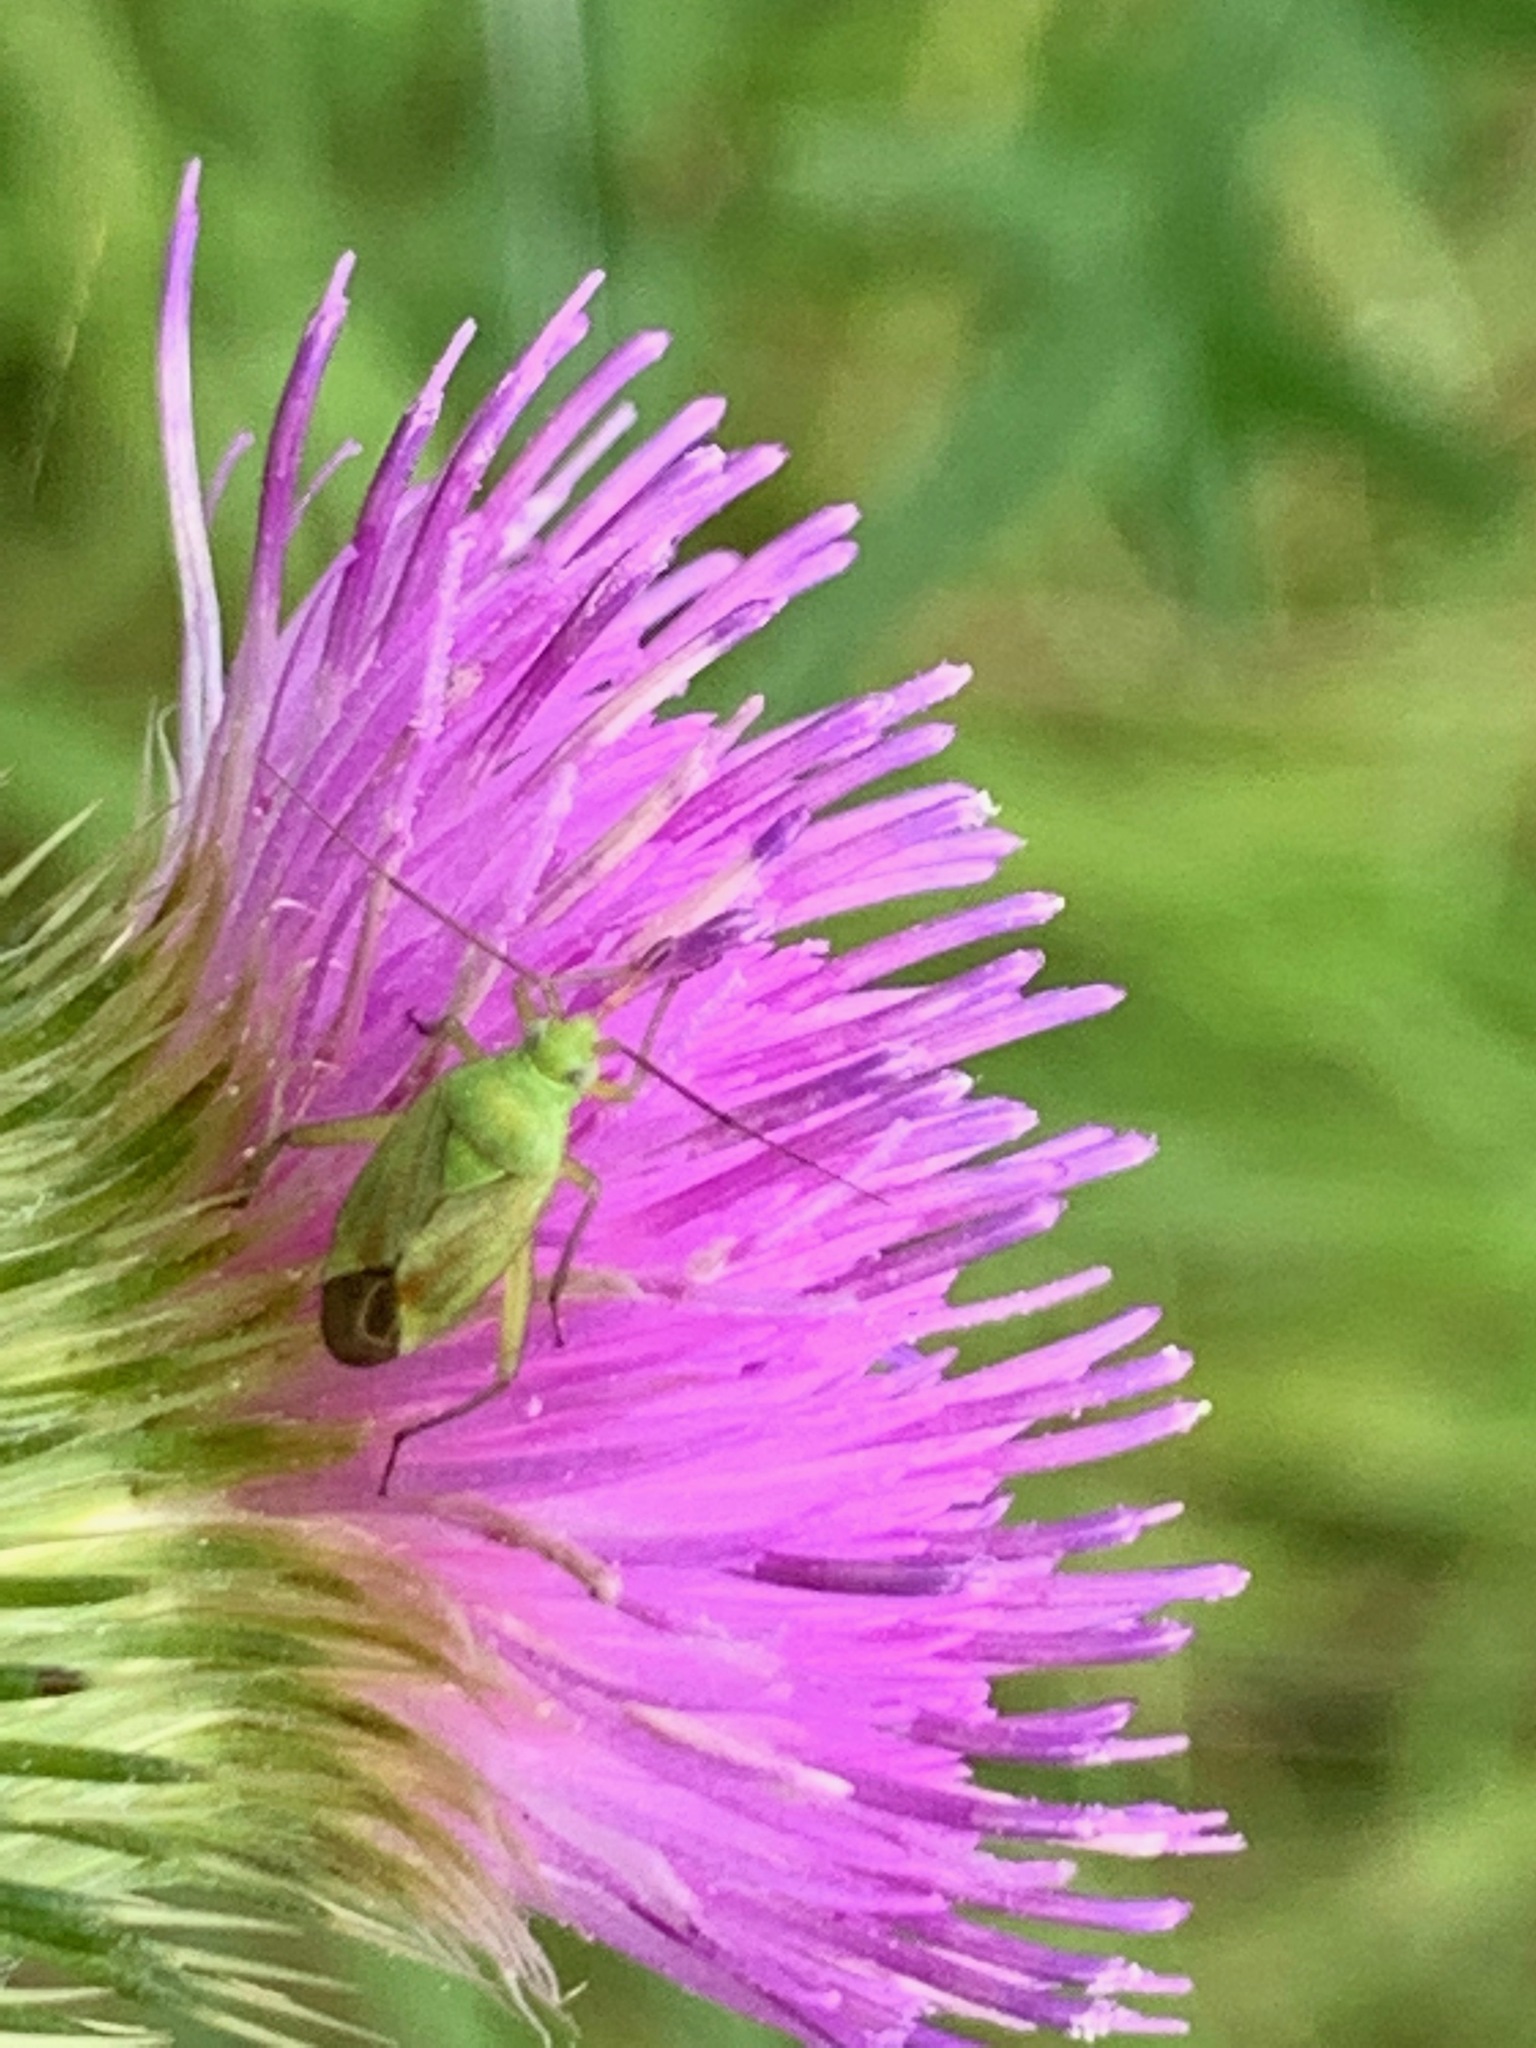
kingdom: Animalia
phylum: Arthropoda
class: Insecta
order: Hemiptera
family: Miridae
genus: Closterotomus
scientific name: Closterotomus norvegicus
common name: Plant bug
